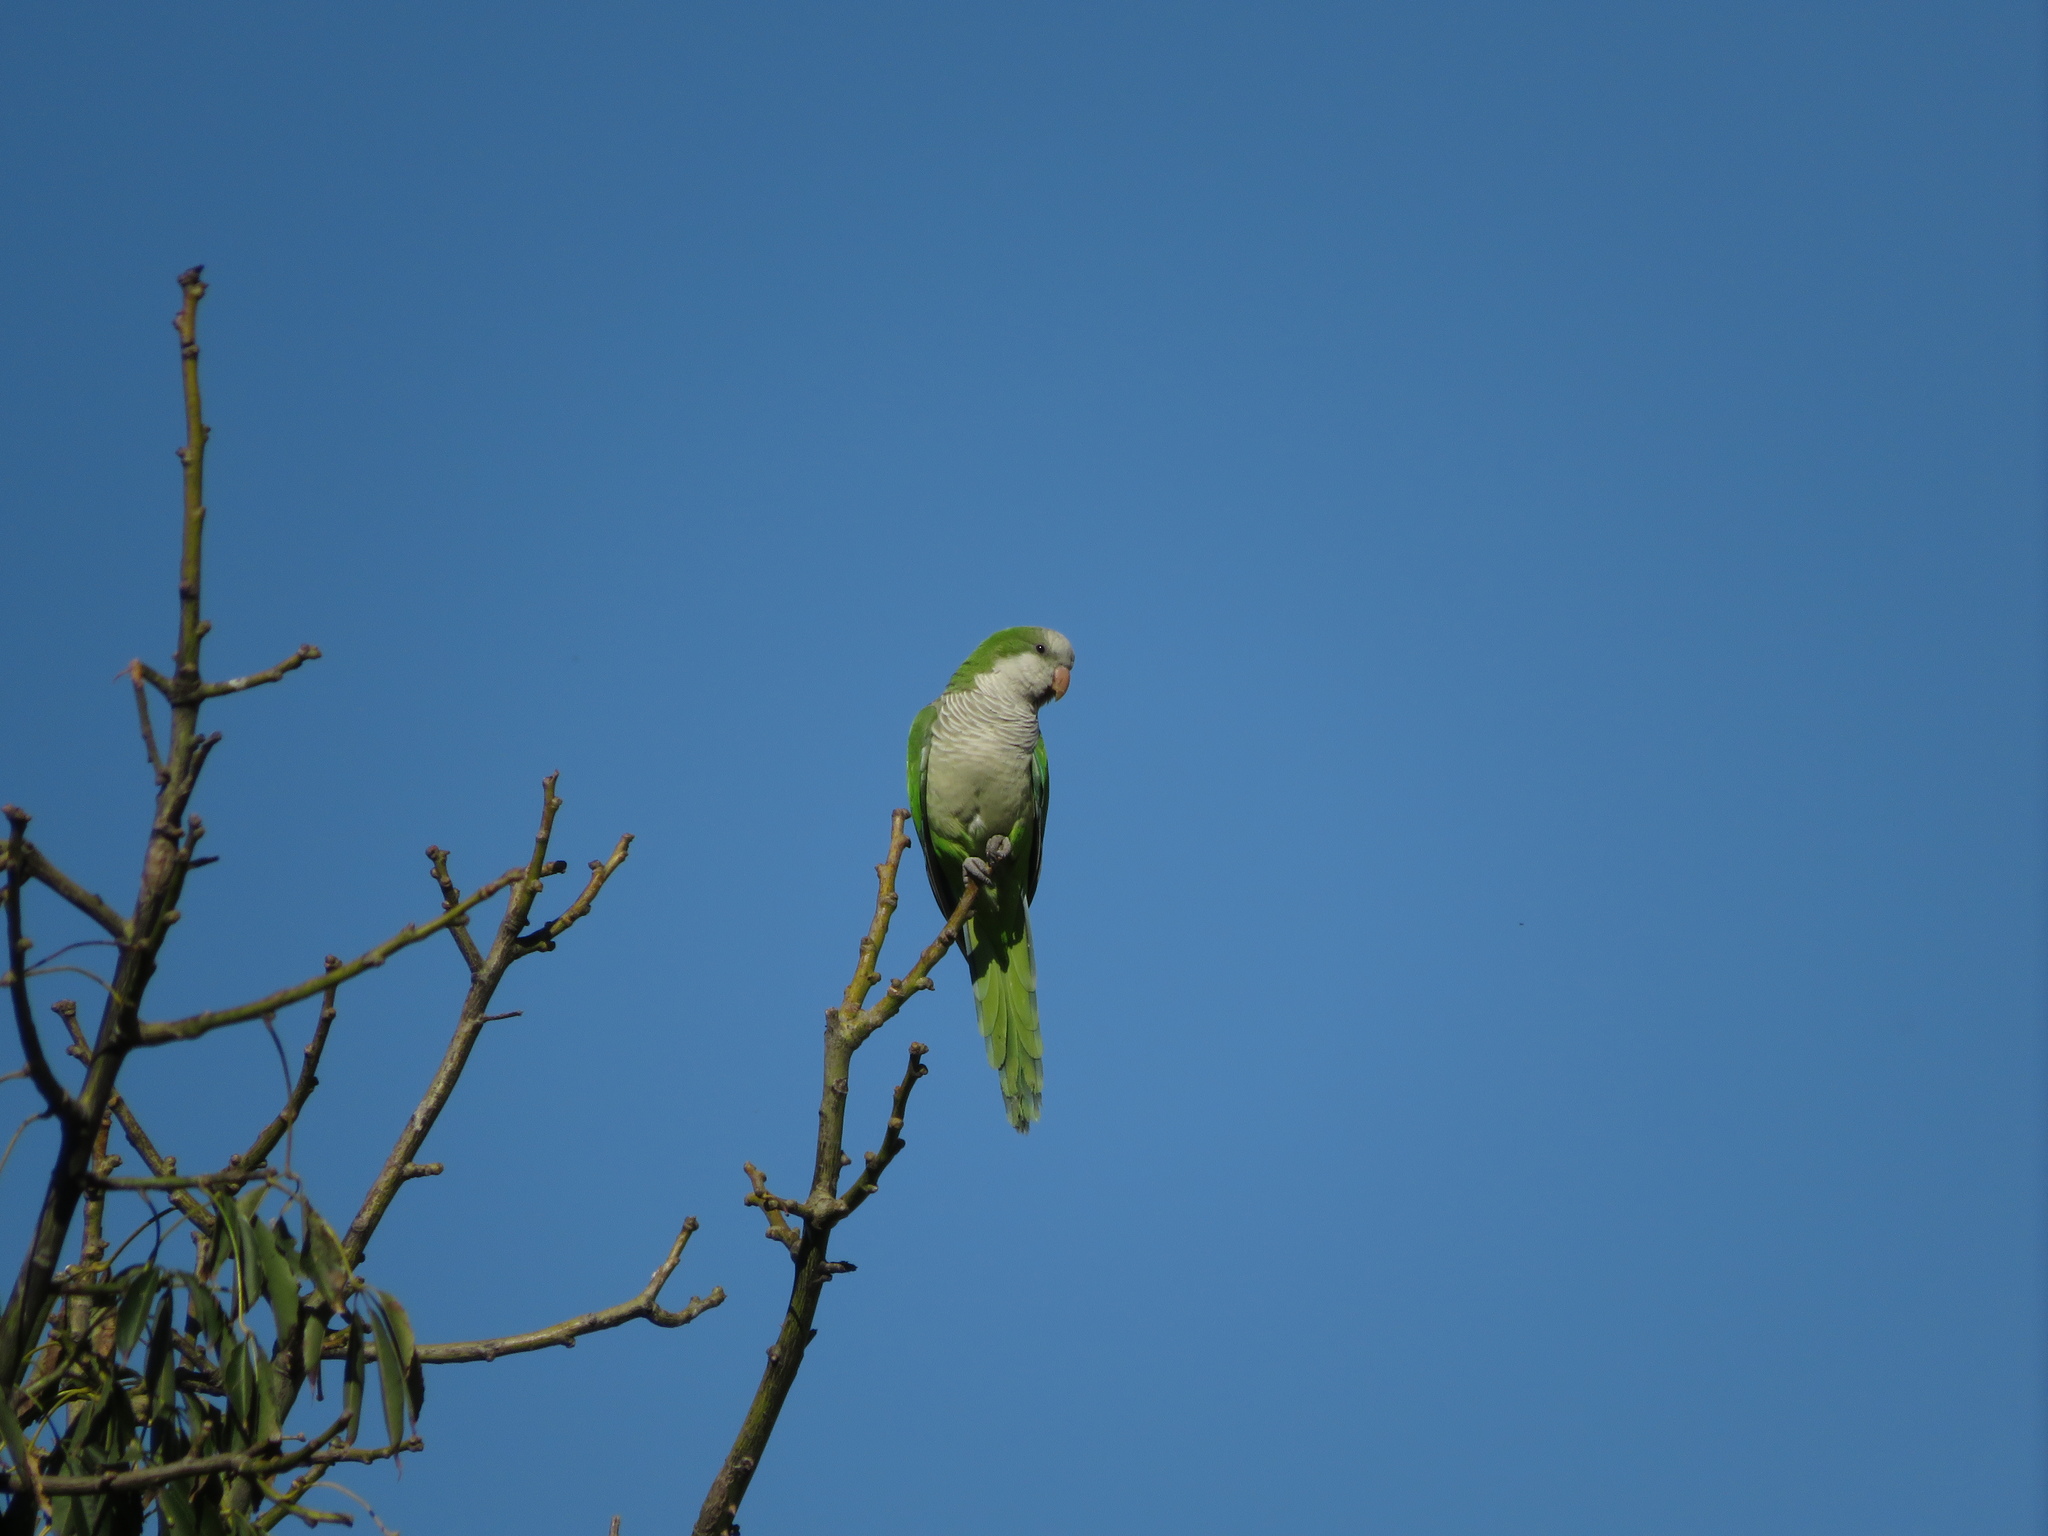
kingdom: Animalia
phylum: Chordata
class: Aves
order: Psittaciformes
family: Psittacidae
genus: Myiopsitta
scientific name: Myiopsitta monachus
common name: Monk parakeet
